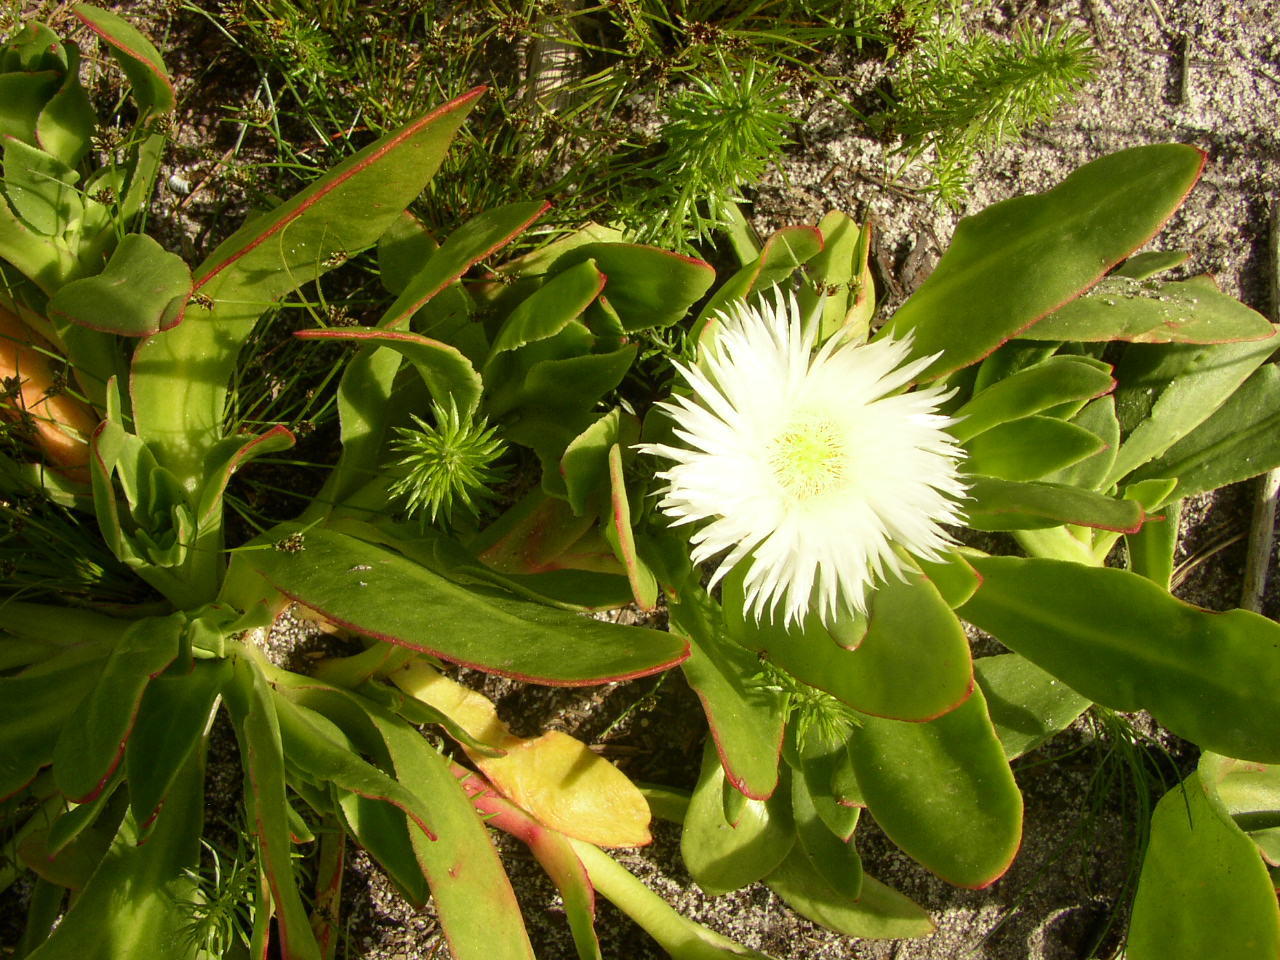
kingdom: Plantae
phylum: Tracheophyta
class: Magnoliopsida
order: Caryophyllales
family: Aizoaceae
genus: Skiatophytum
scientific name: Skiatophytum tripolium
